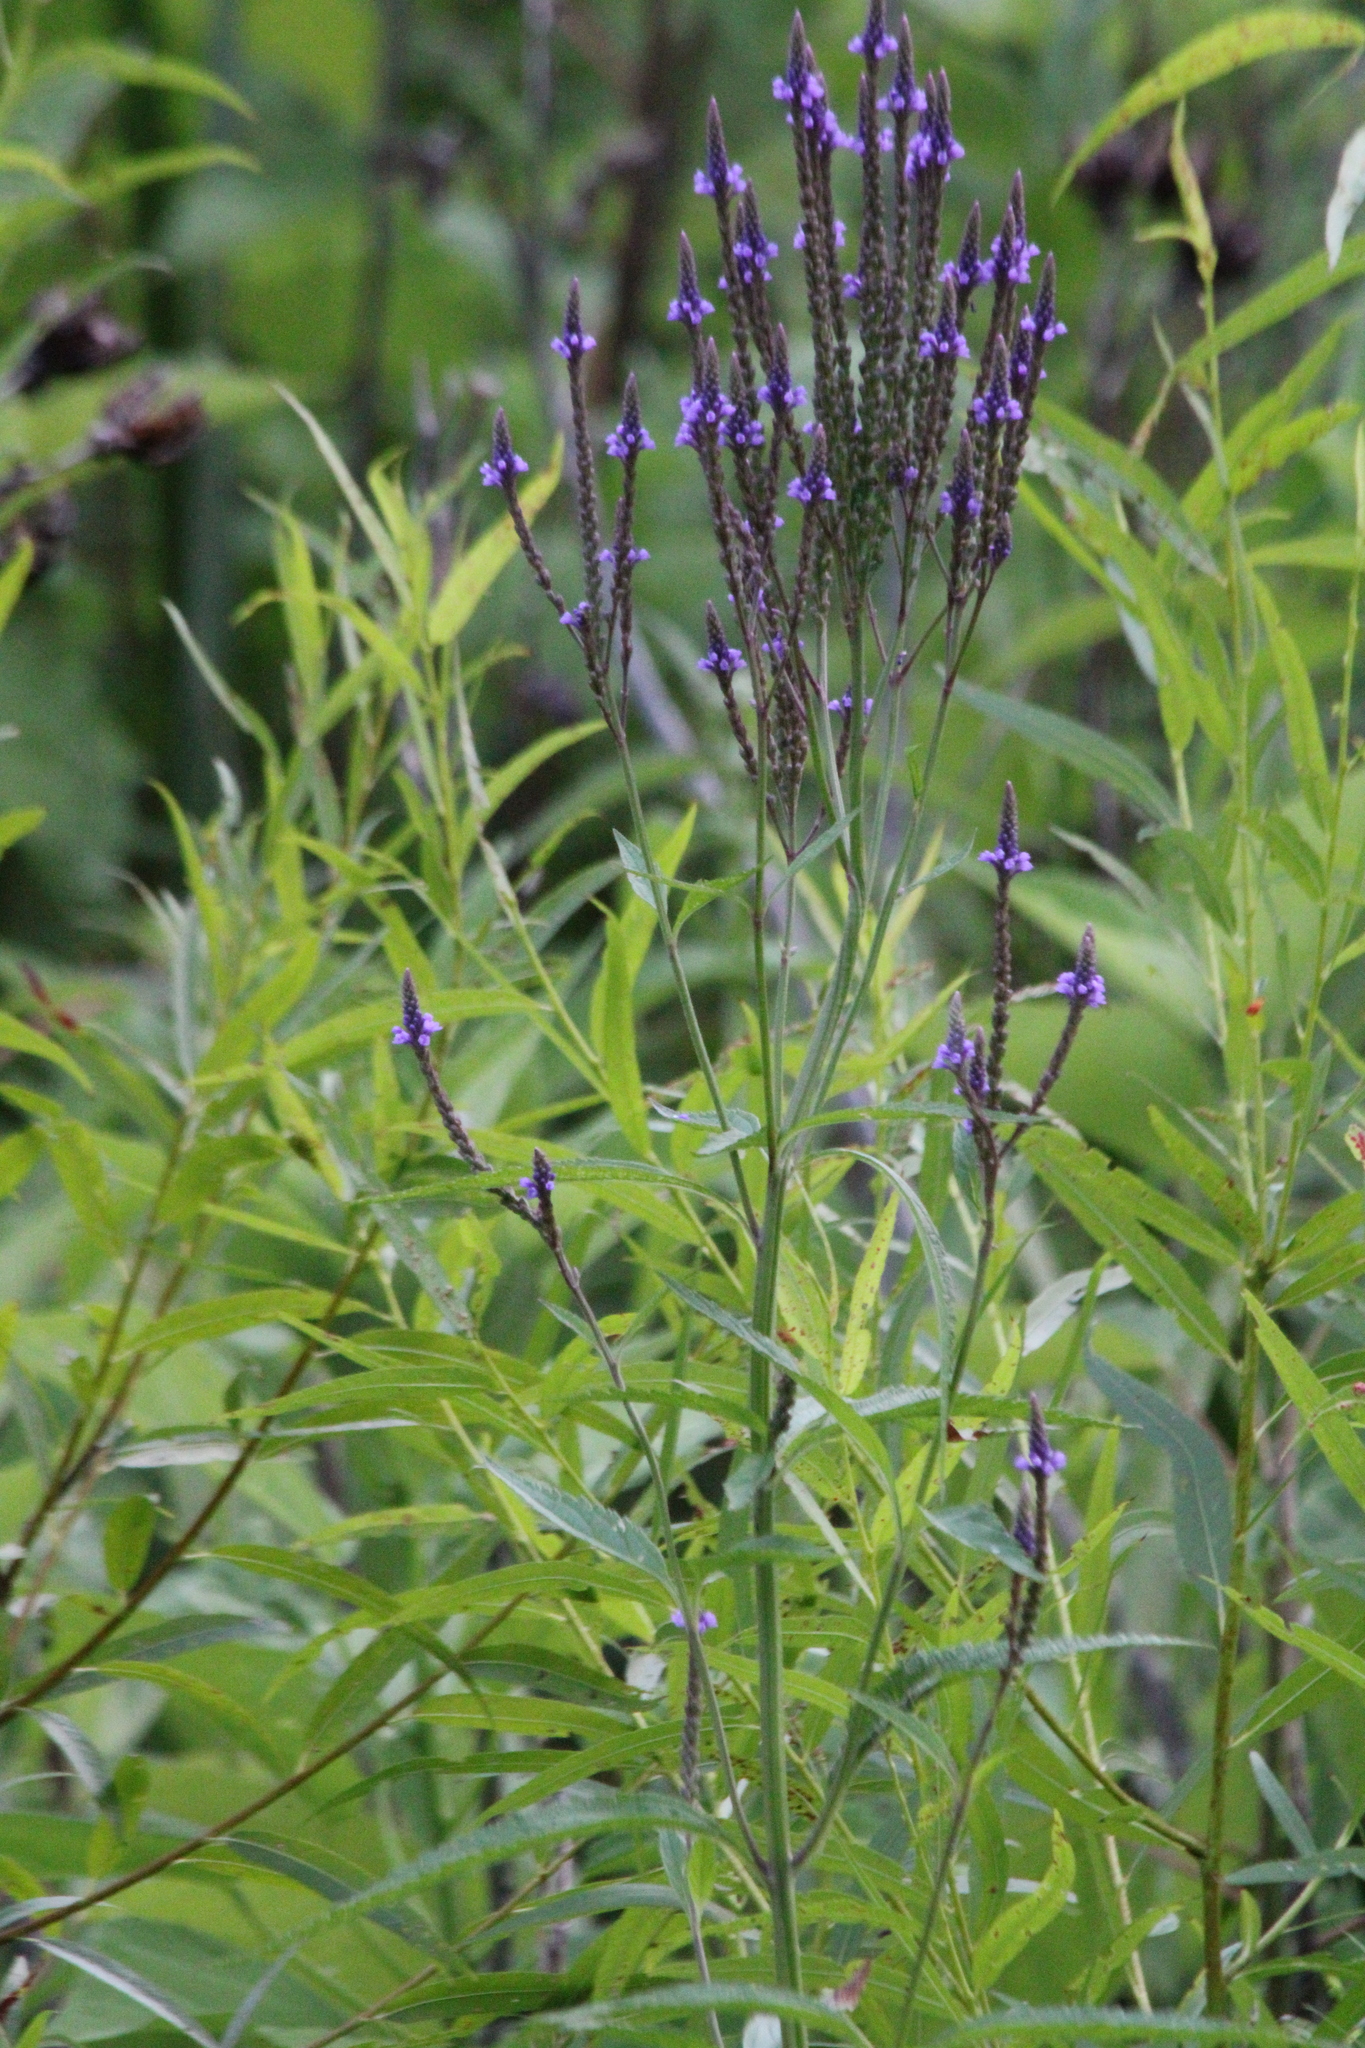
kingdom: Plantae
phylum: Tracheophyta
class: Magnoliopsida
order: Lamiales
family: Verbenaceae
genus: Verbena
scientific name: Verbena hastata
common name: American blue vervain
